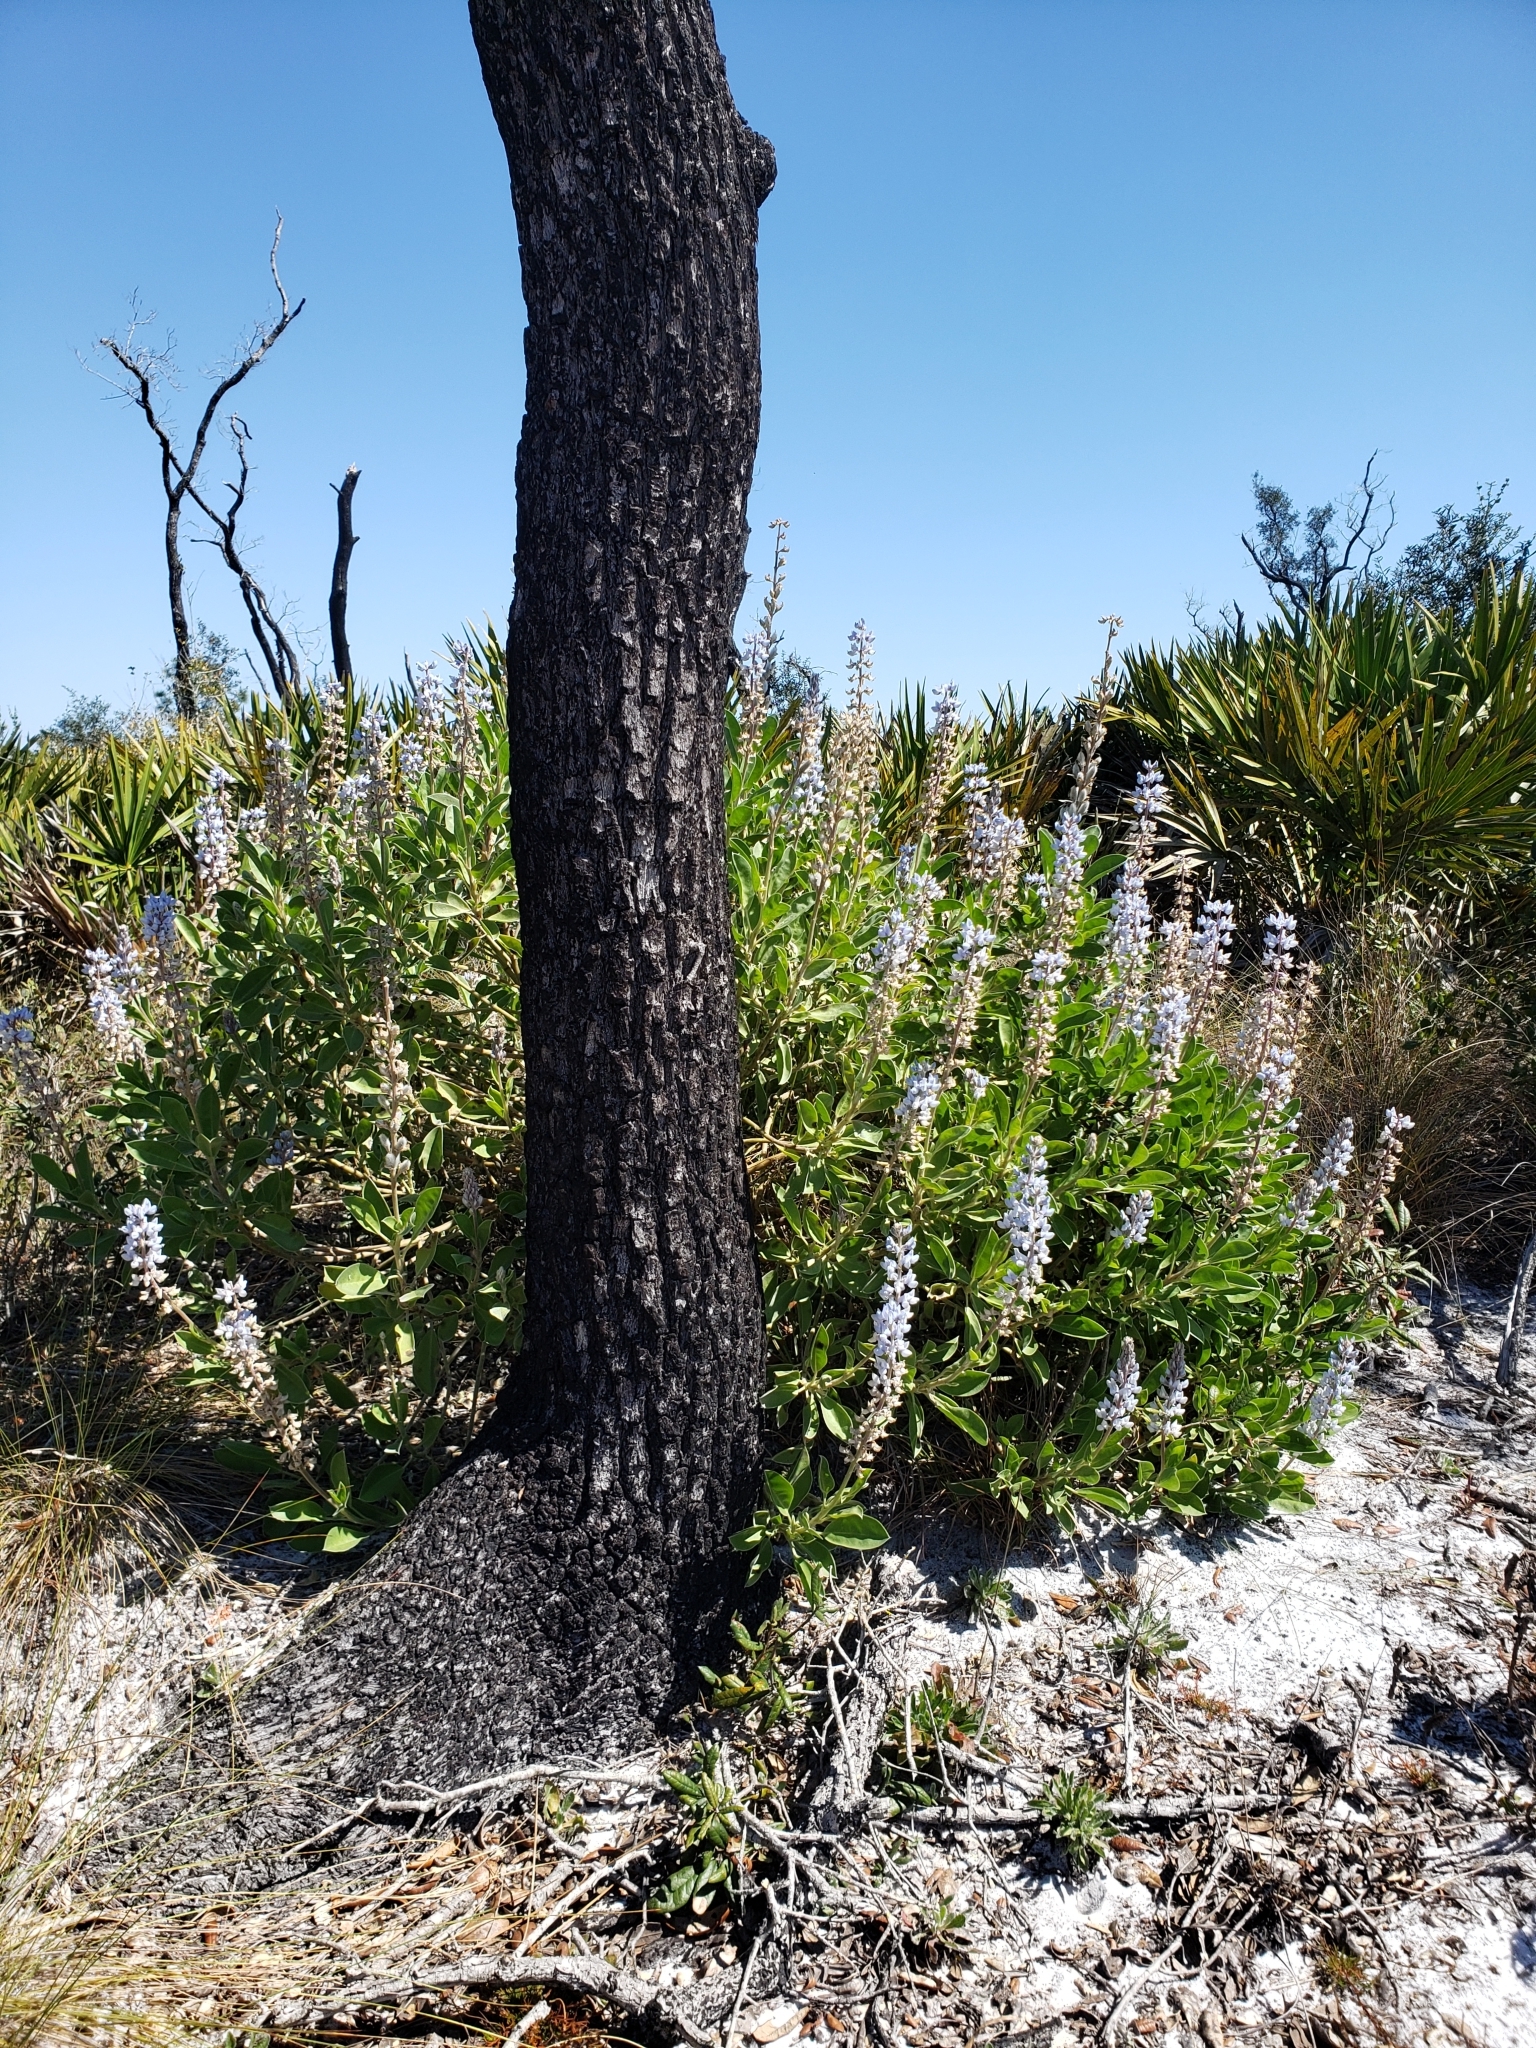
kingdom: Plantae
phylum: Tracheophyta
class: Magnoliopsida
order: Fabales
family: Fabaceae
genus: Lupinus
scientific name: Lupinus
